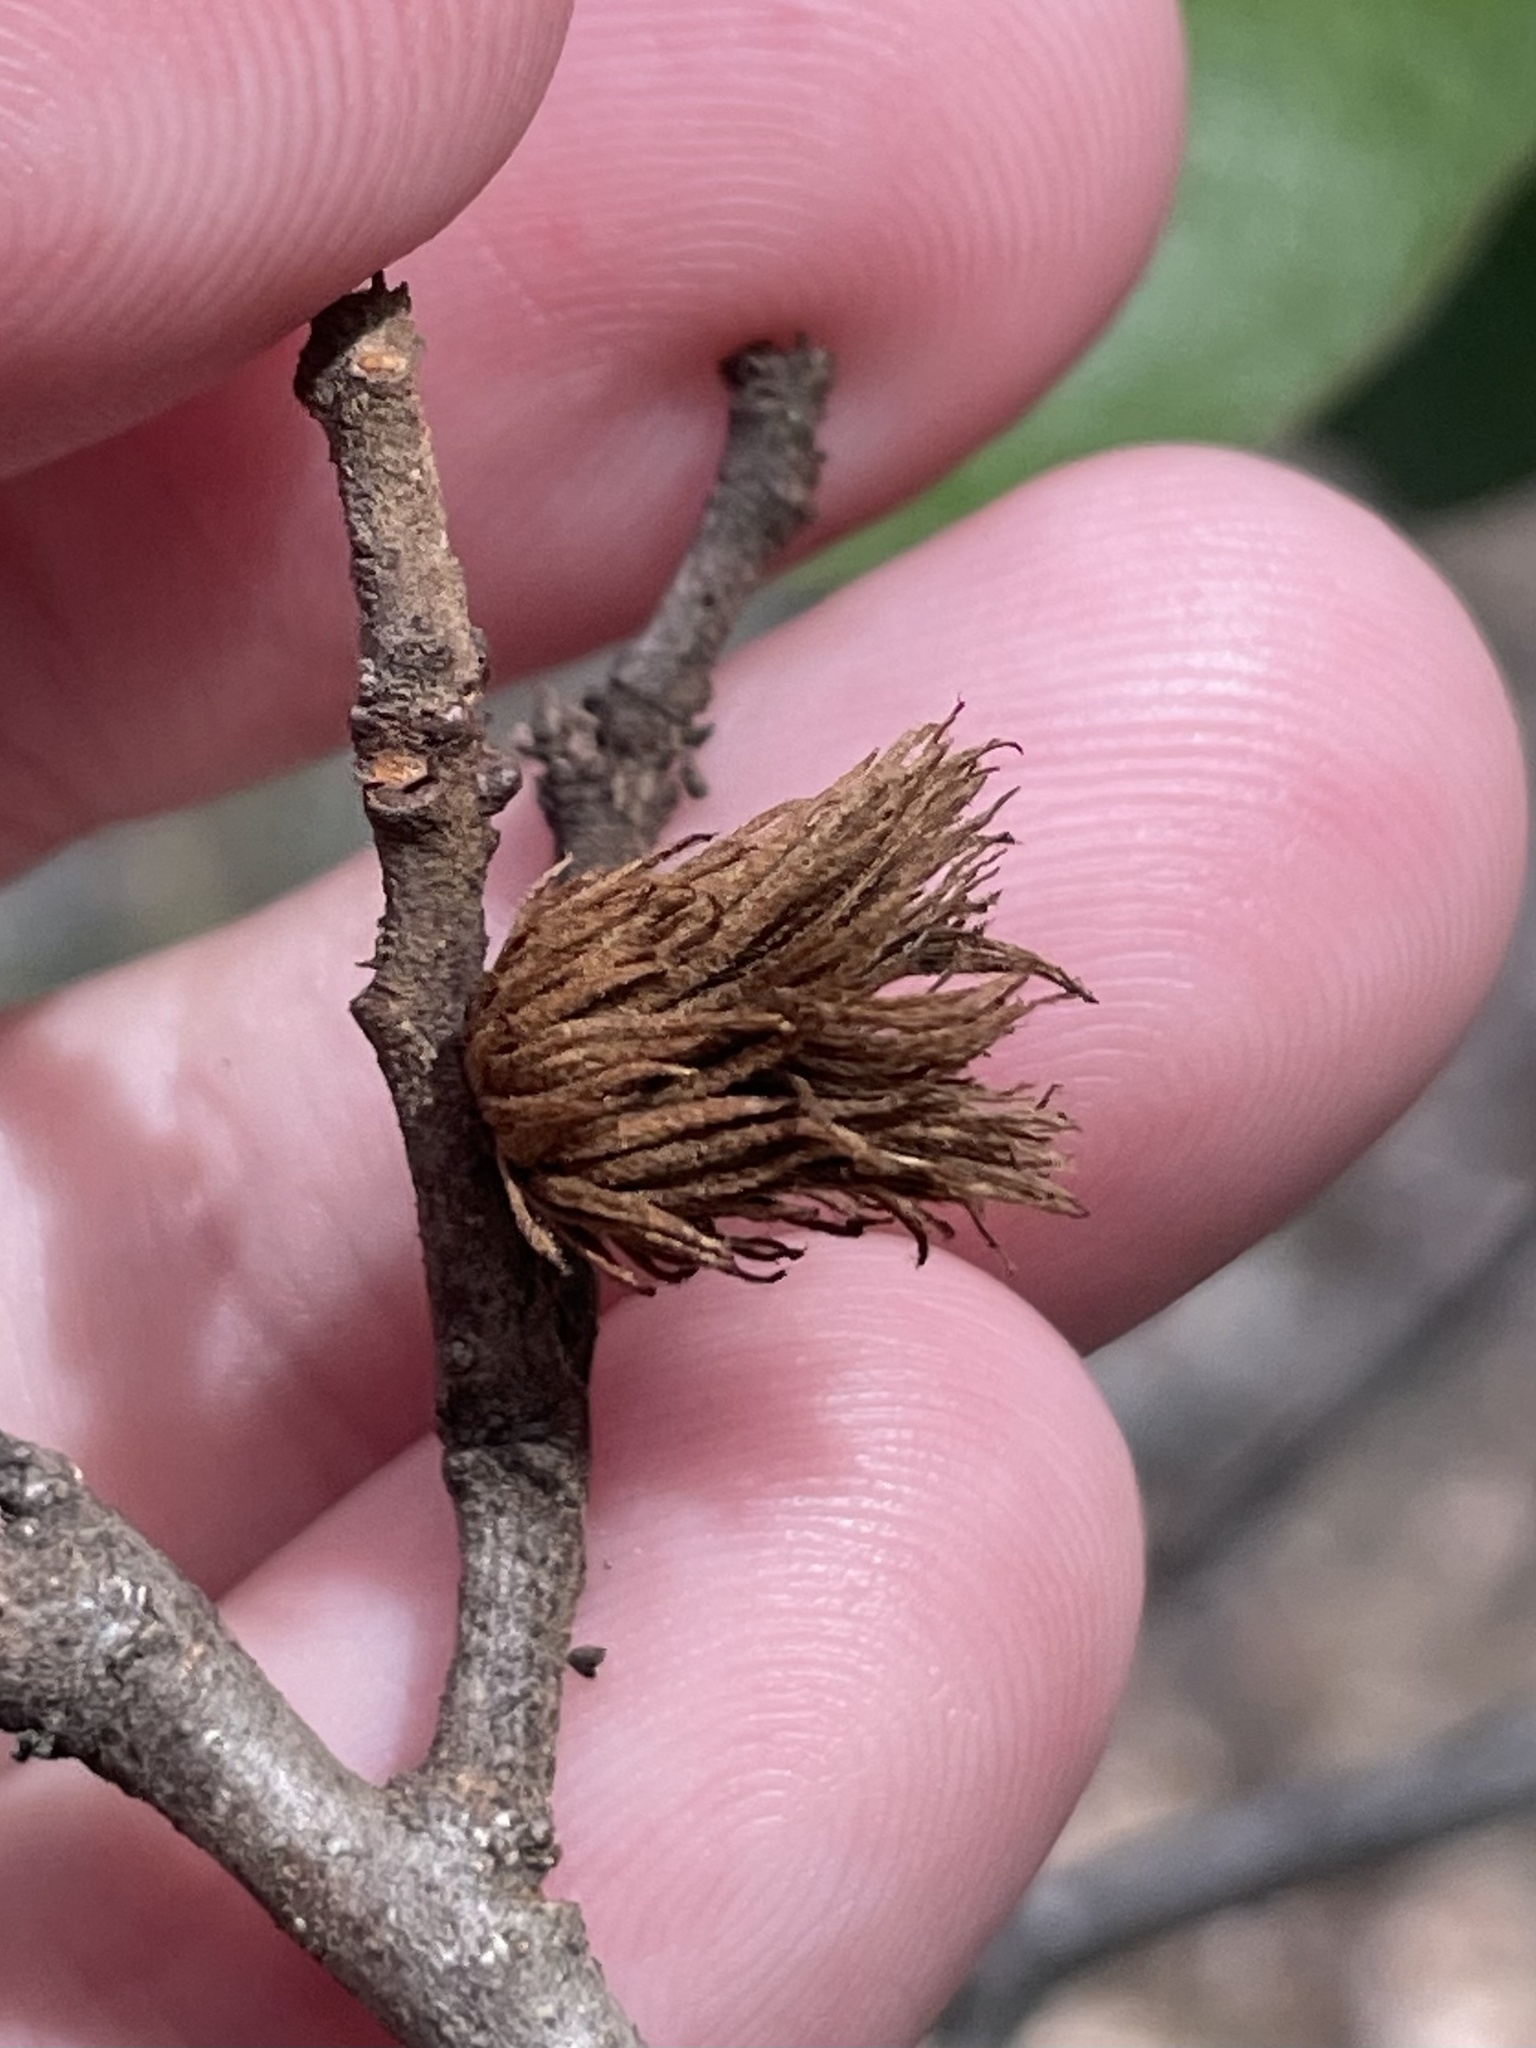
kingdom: Animalia
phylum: Arthropoda
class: Insecta
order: Hymenoptera
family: Cynipidae
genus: Andricus
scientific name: Andricus quercusfoliatus
